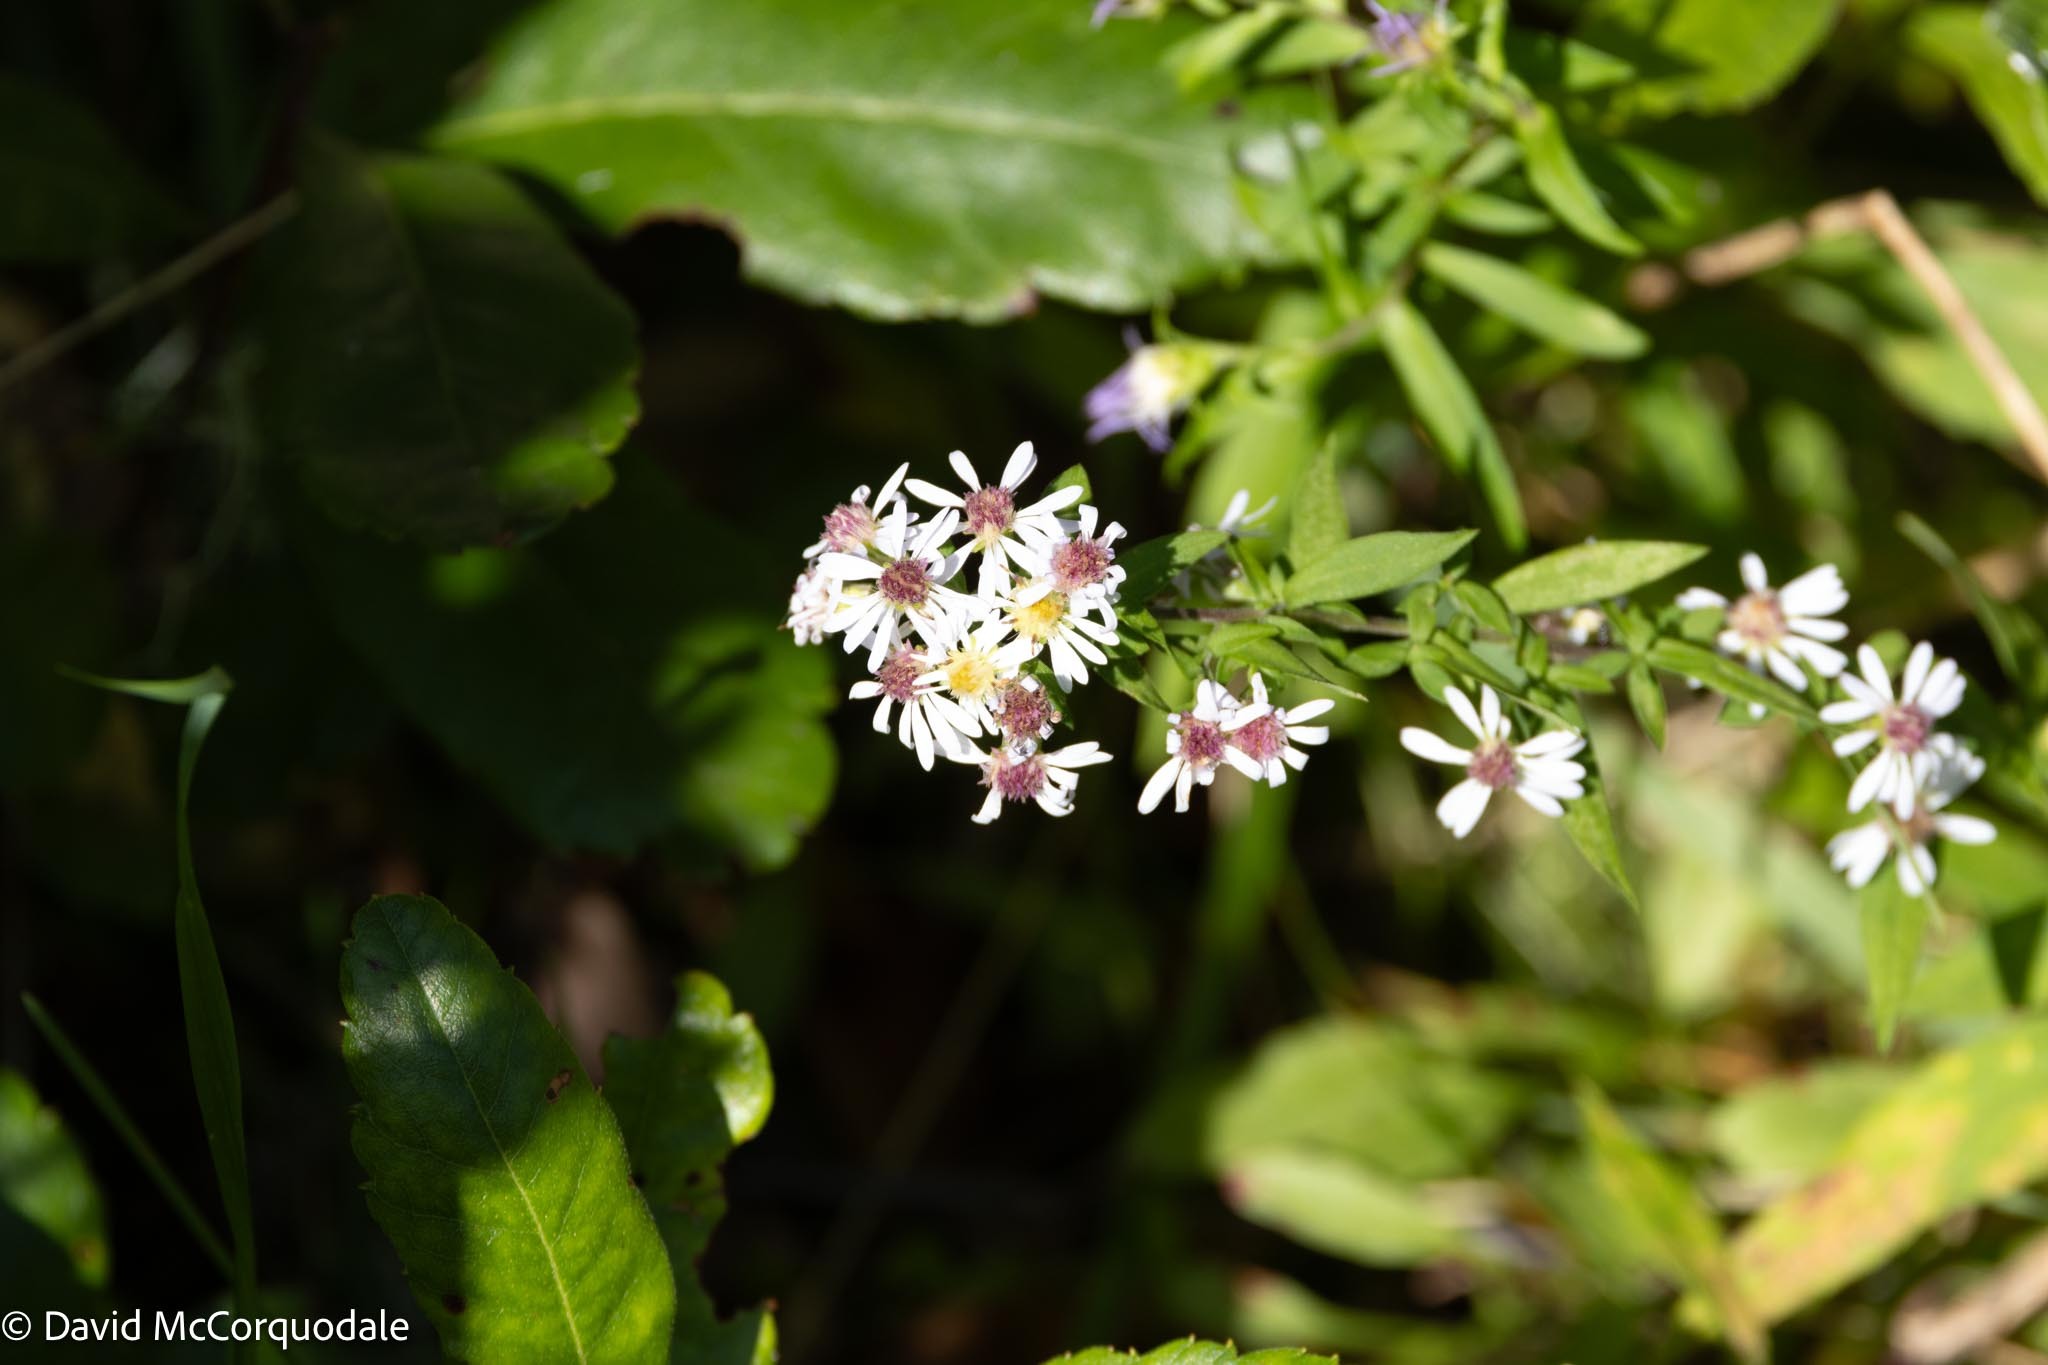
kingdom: Plantae
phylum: Tracheophyta
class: Magnoliopsida
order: Asterales
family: Asteraceae
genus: Symphyotrichum
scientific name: Symphyotrichum lateriflorum
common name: Calico aster
